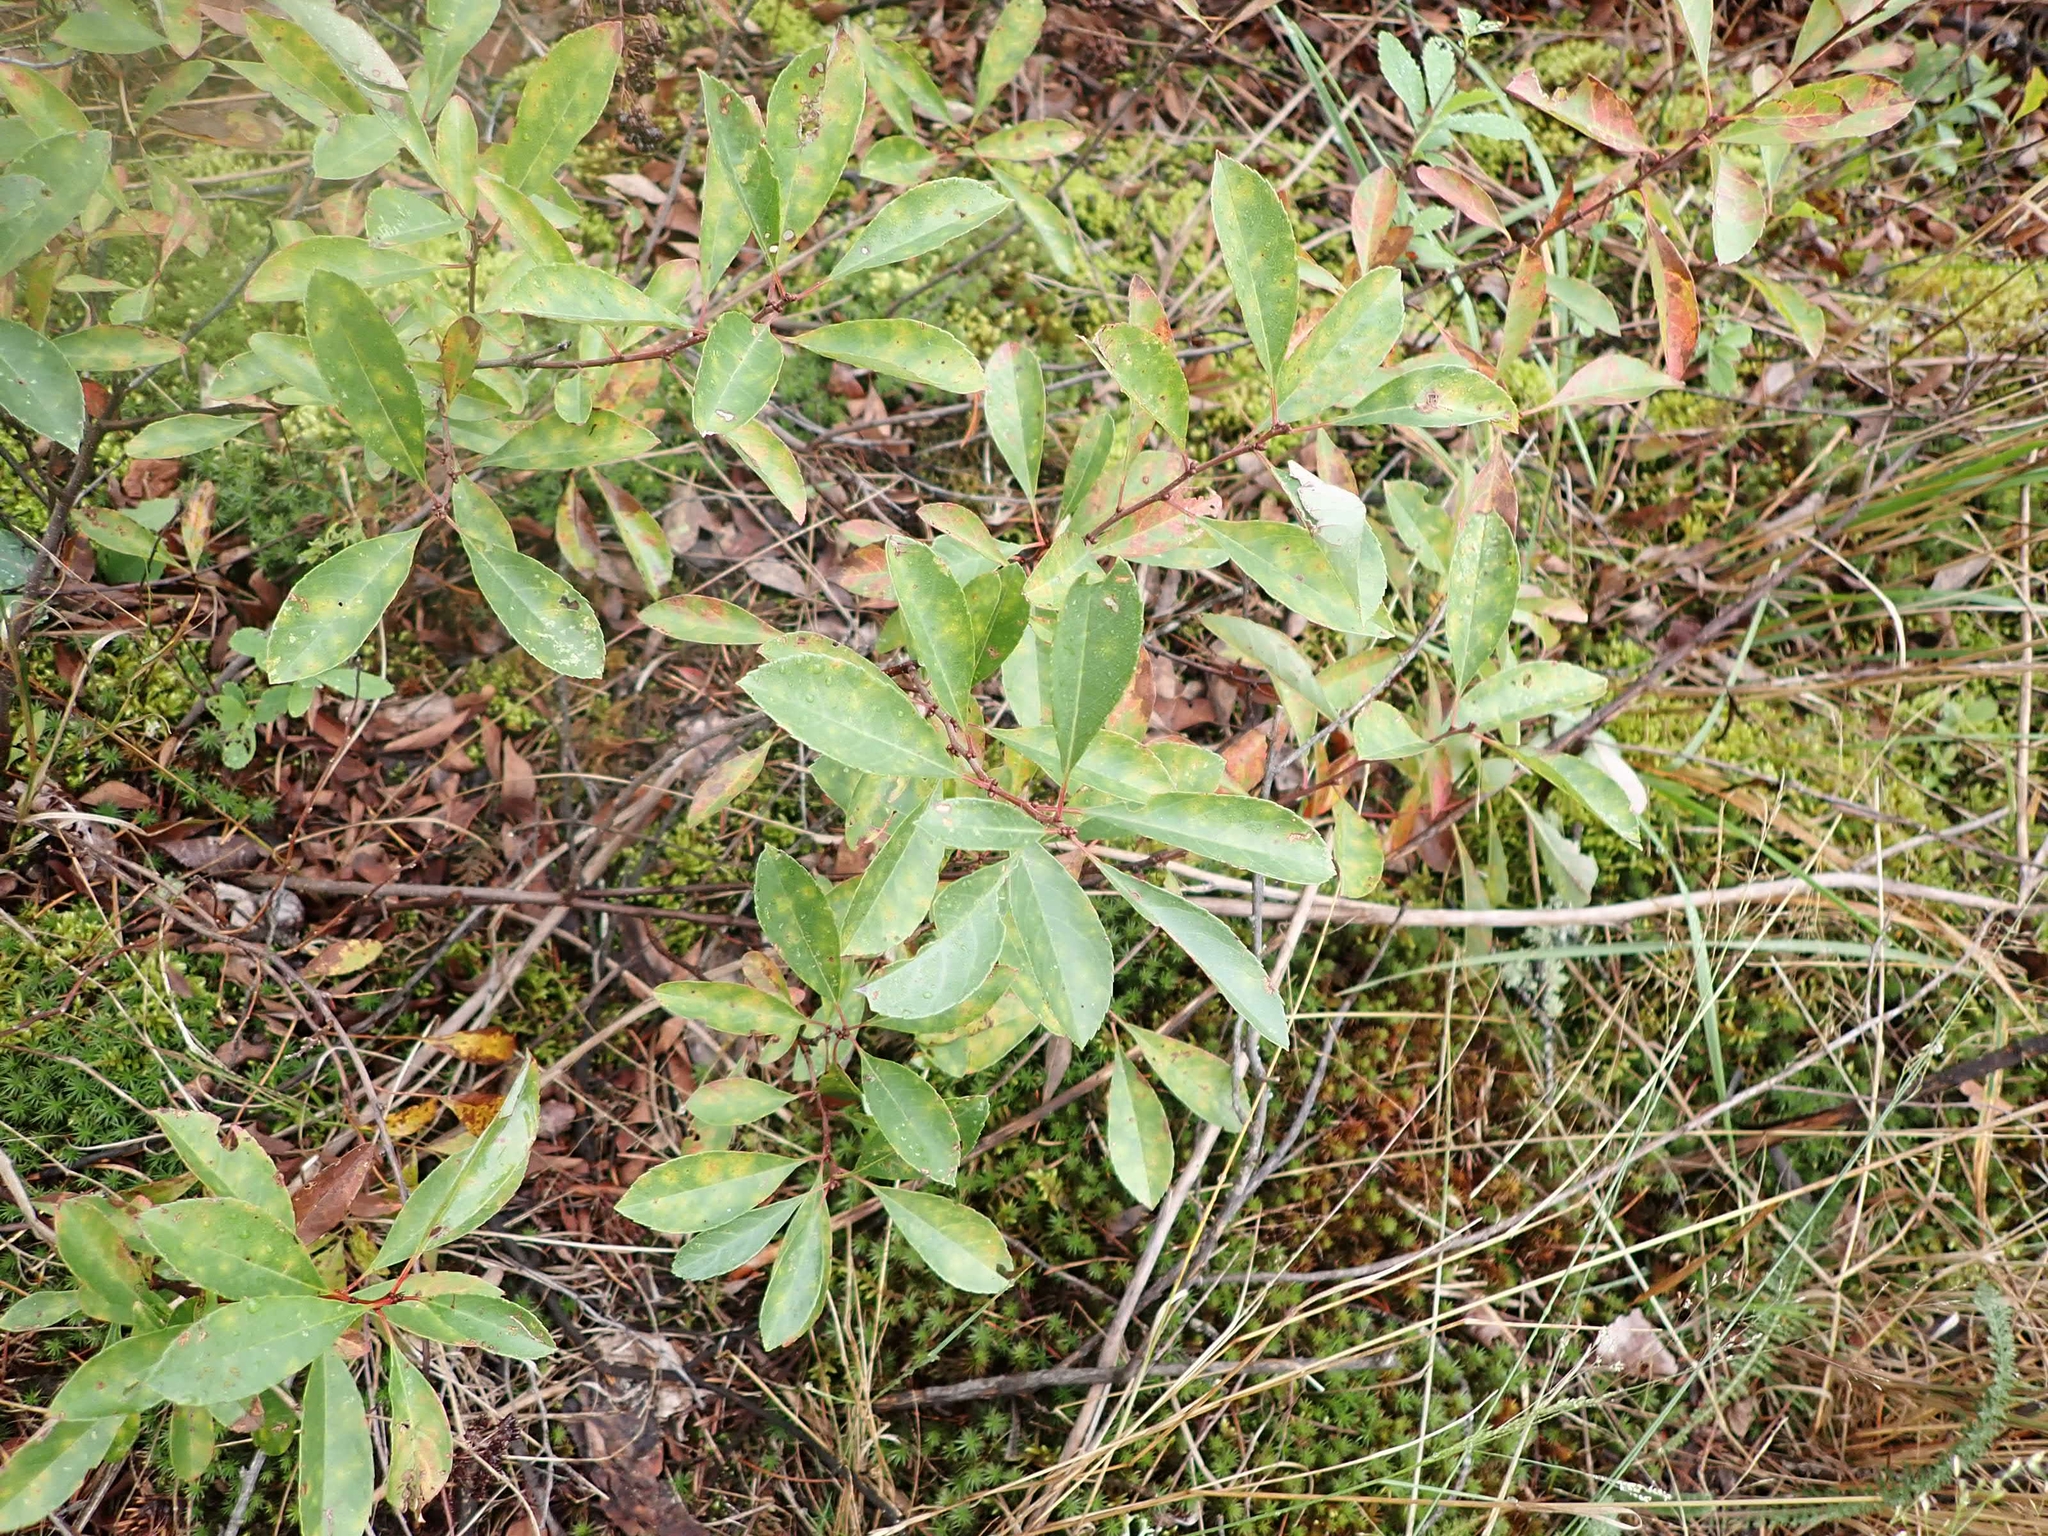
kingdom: Plantae
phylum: Tracheophyta
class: Magnoliopsida
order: Rosales
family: Rosaceae
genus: Prunus
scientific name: Prunus pumila
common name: Dwarf cherry
